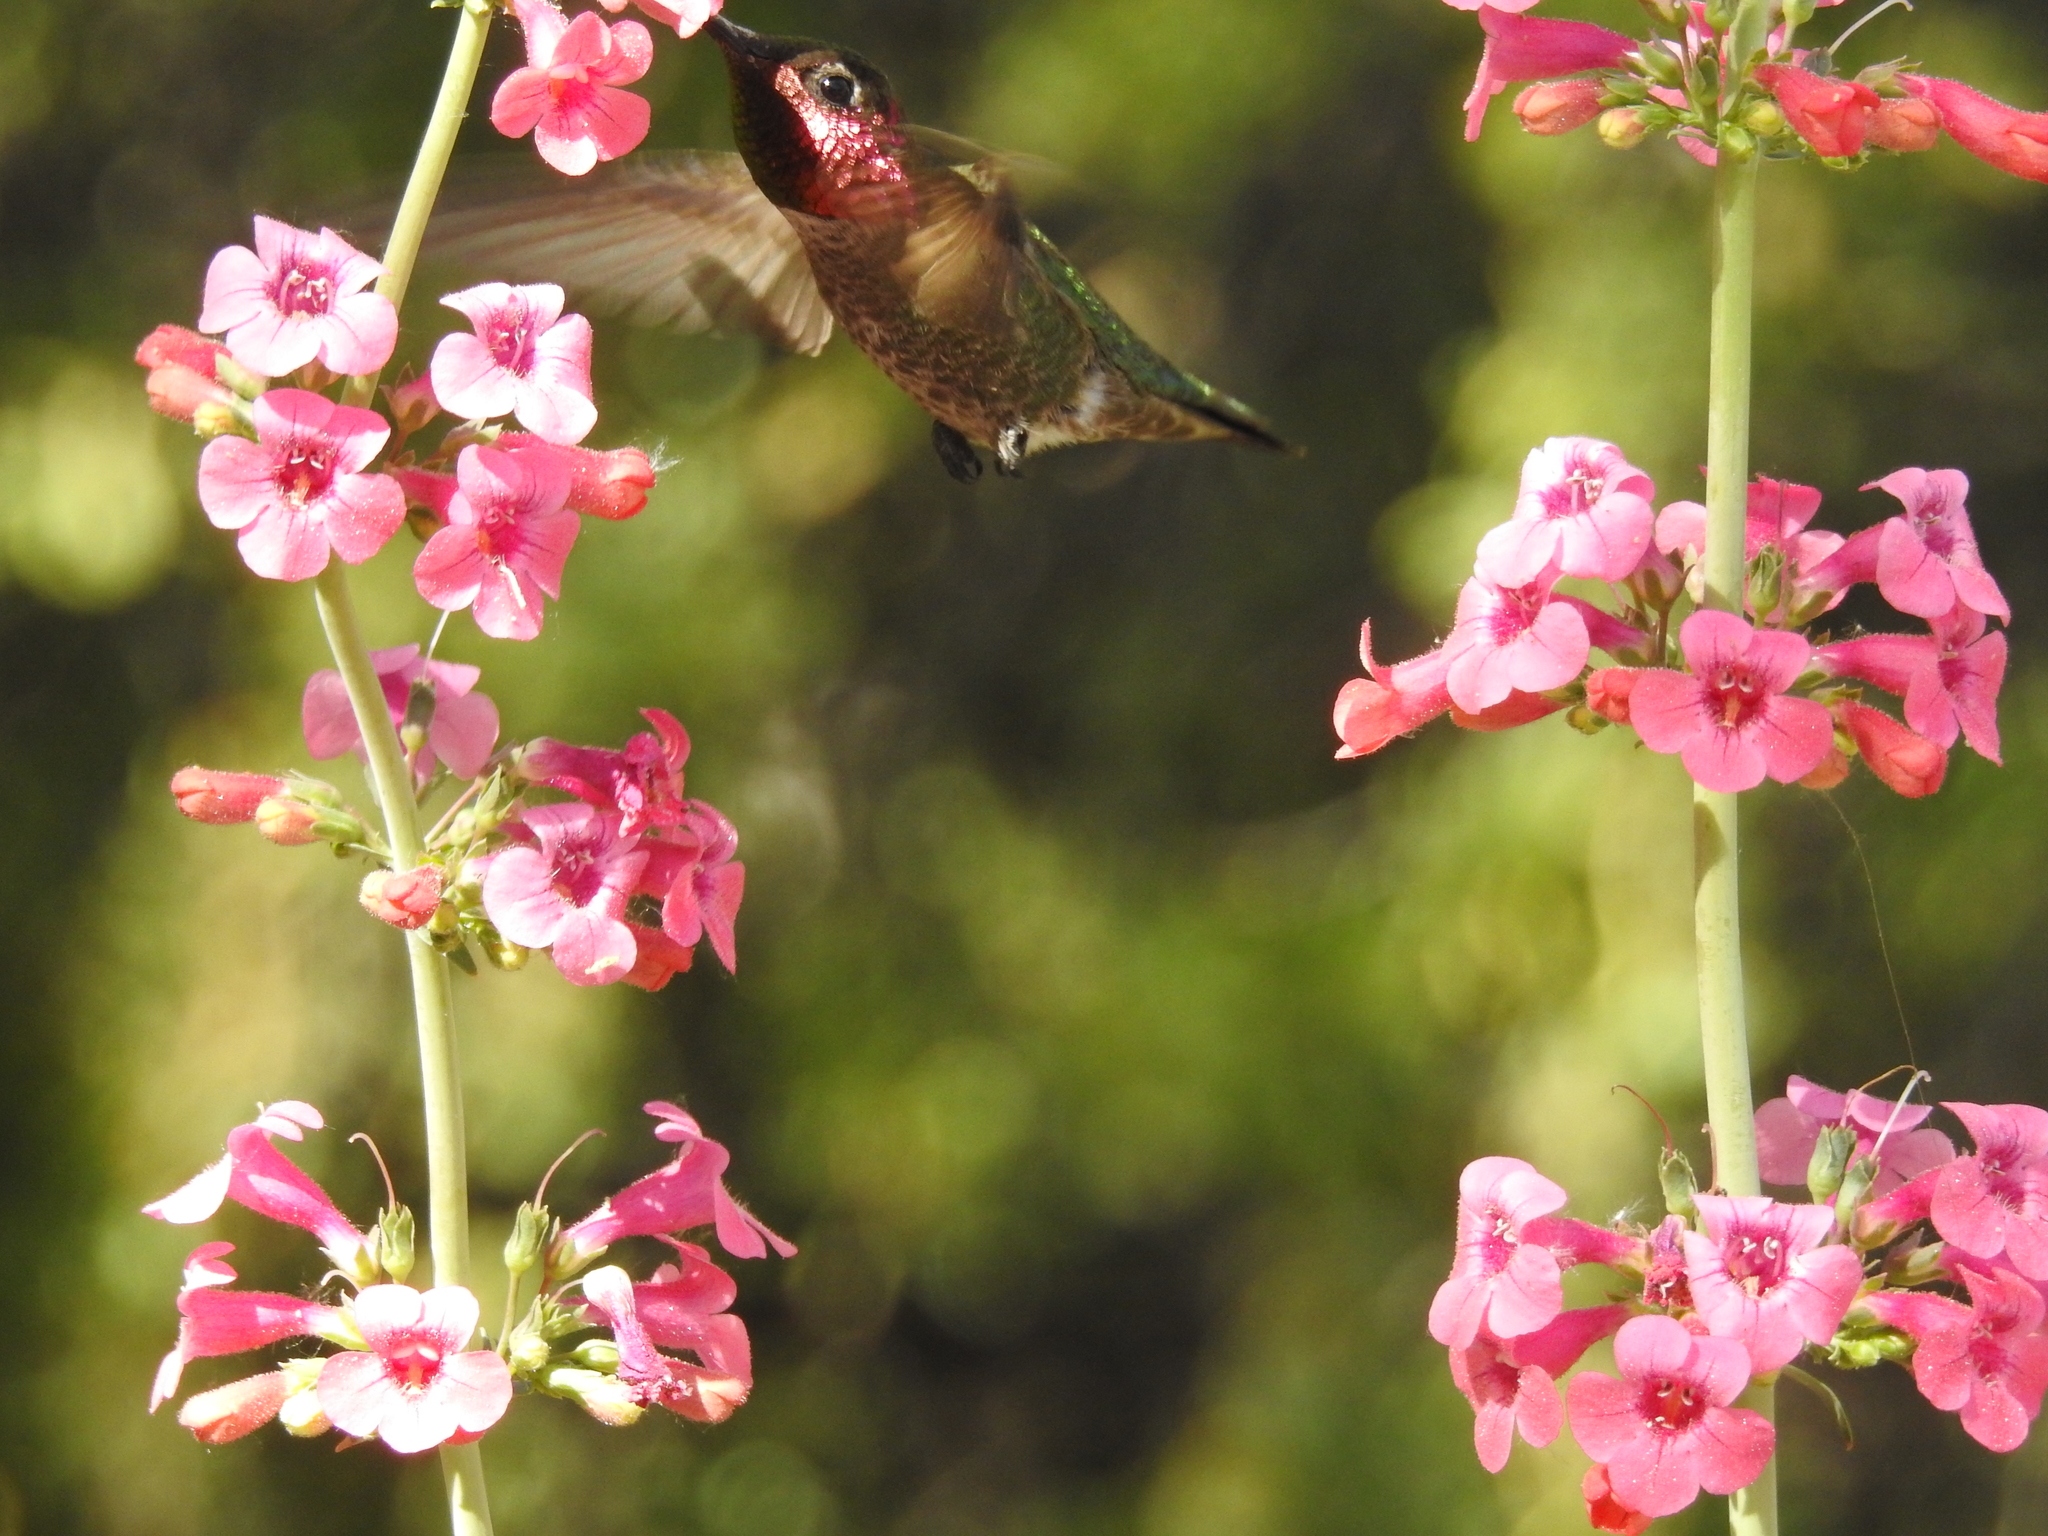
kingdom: Animalia
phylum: Chordata
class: Aves
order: Apodiformes
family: Trochilidae
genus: Calypte
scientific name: Calypte anna
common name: Anna's hummingbird
